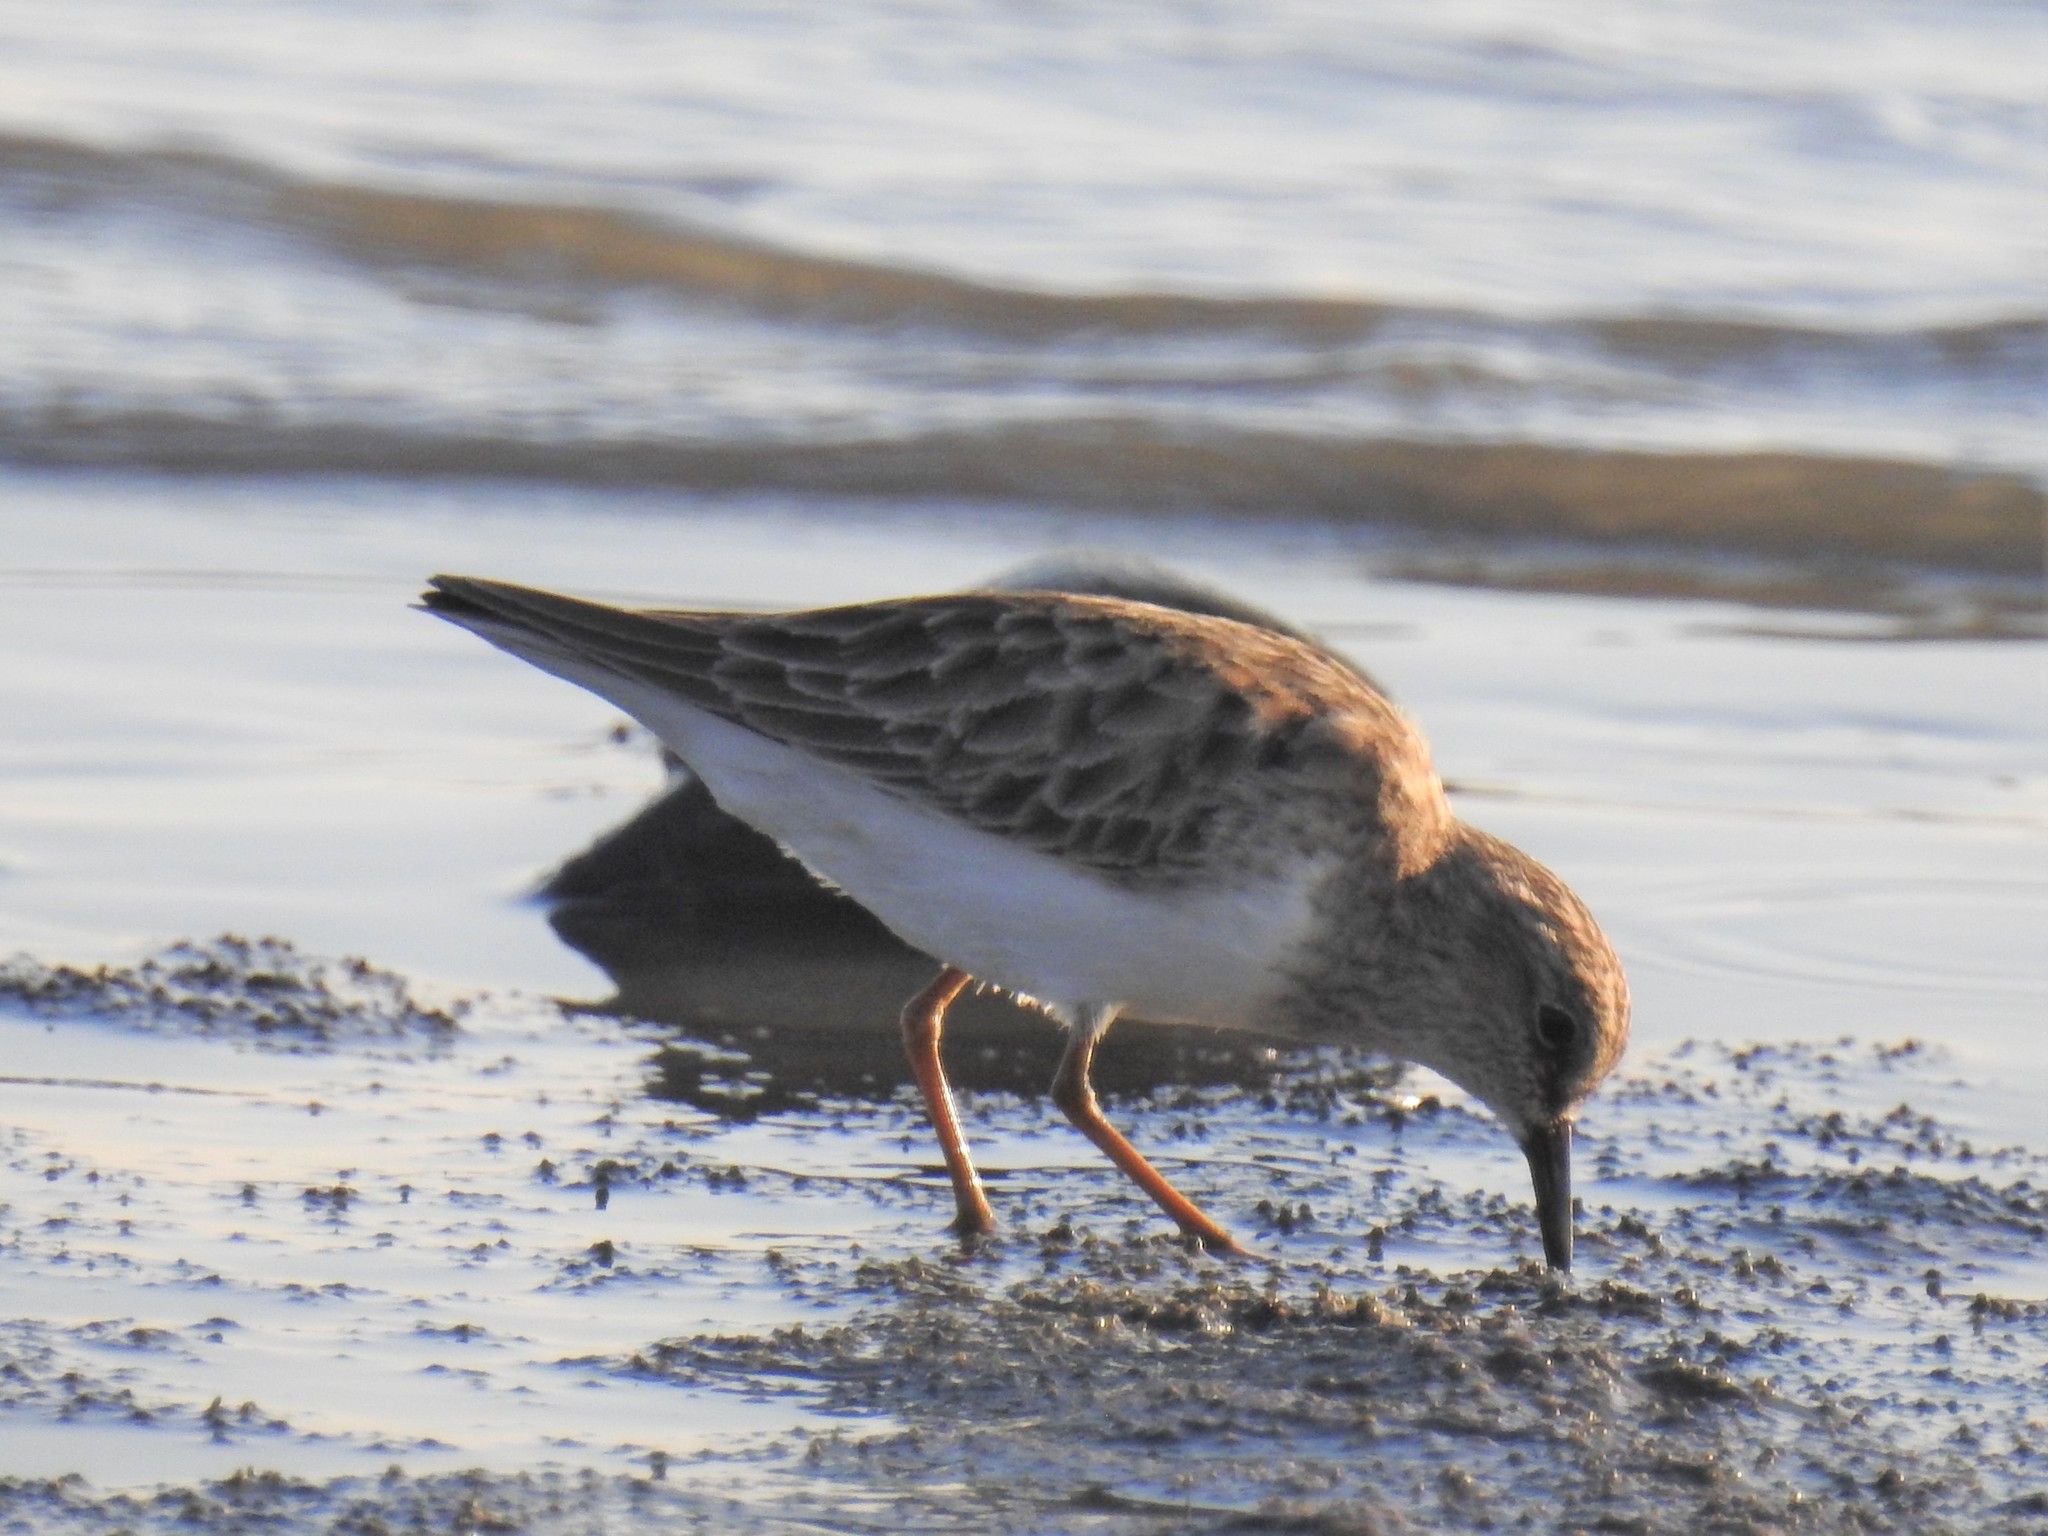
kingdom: Animalia
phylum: Chordata
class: Aves
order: Charadriiformes
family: Scolopacidae
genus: Calidris
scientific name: Calidris minutilla
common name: Least sandpiper
